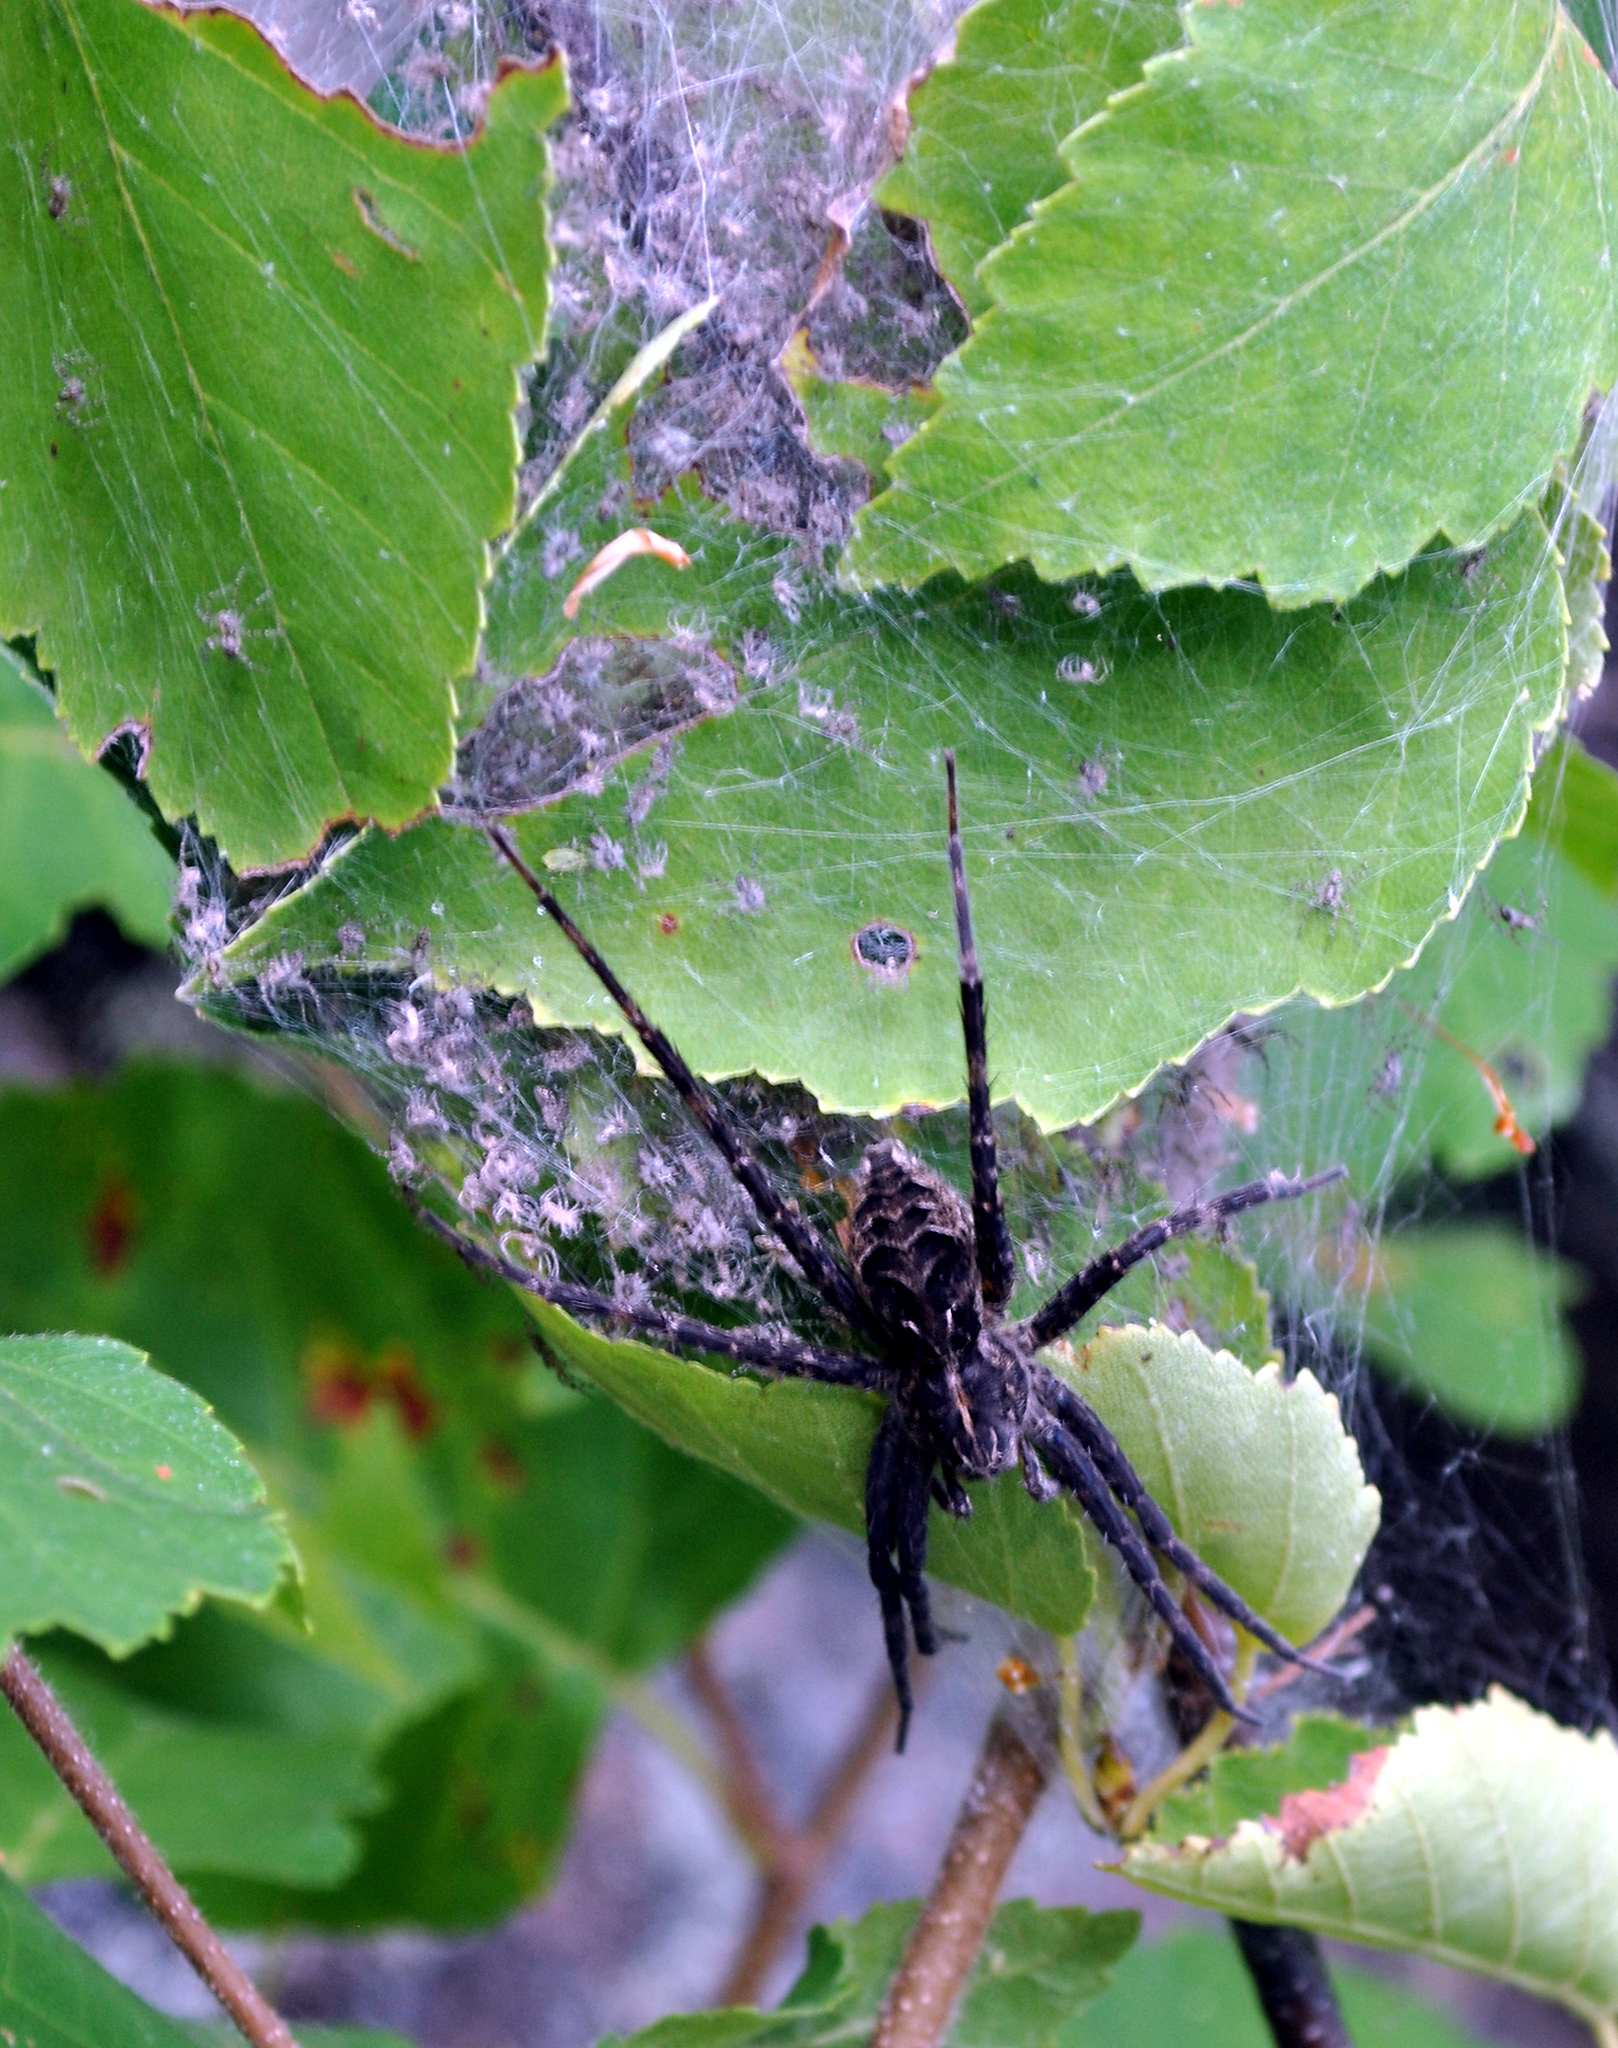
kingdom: Animalia
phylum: Arthropoda
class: Arachnida
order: Araneae
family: Pisauridae
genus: Dolomedes
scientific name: Dolomedes scriptus
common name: Striped fishing spider
